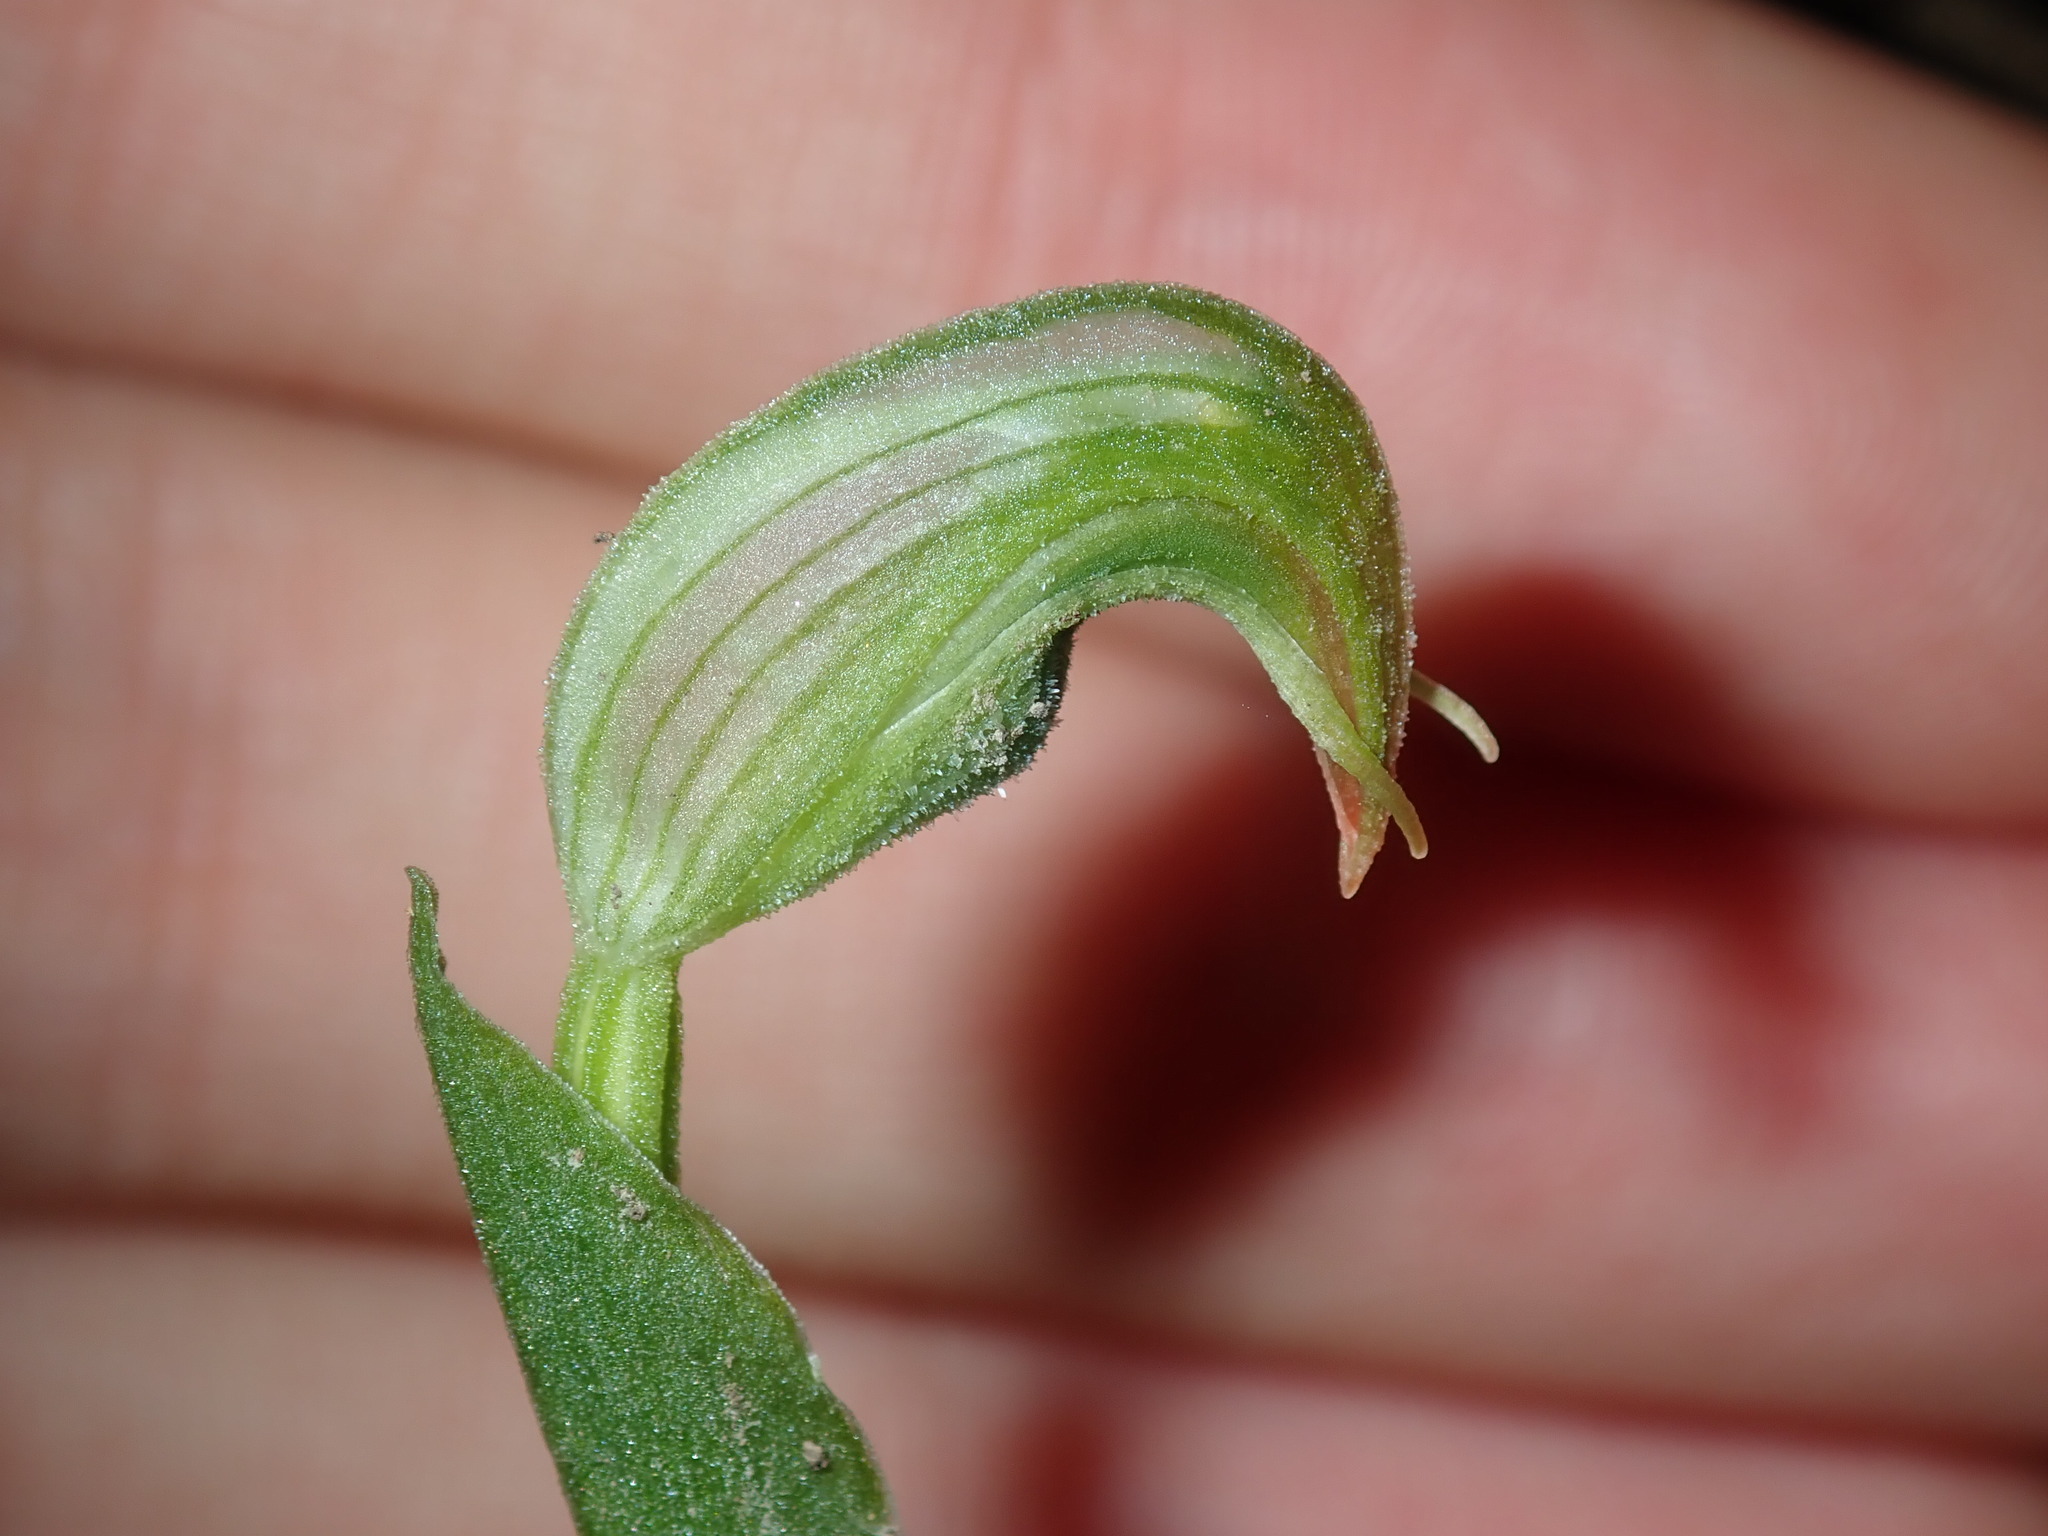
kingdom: Plantae
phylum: Tracheophyta
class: Liliopsida
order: Asparagales
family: Orchidaceae
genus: Pterostylis
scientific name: Pterostylis nutans
